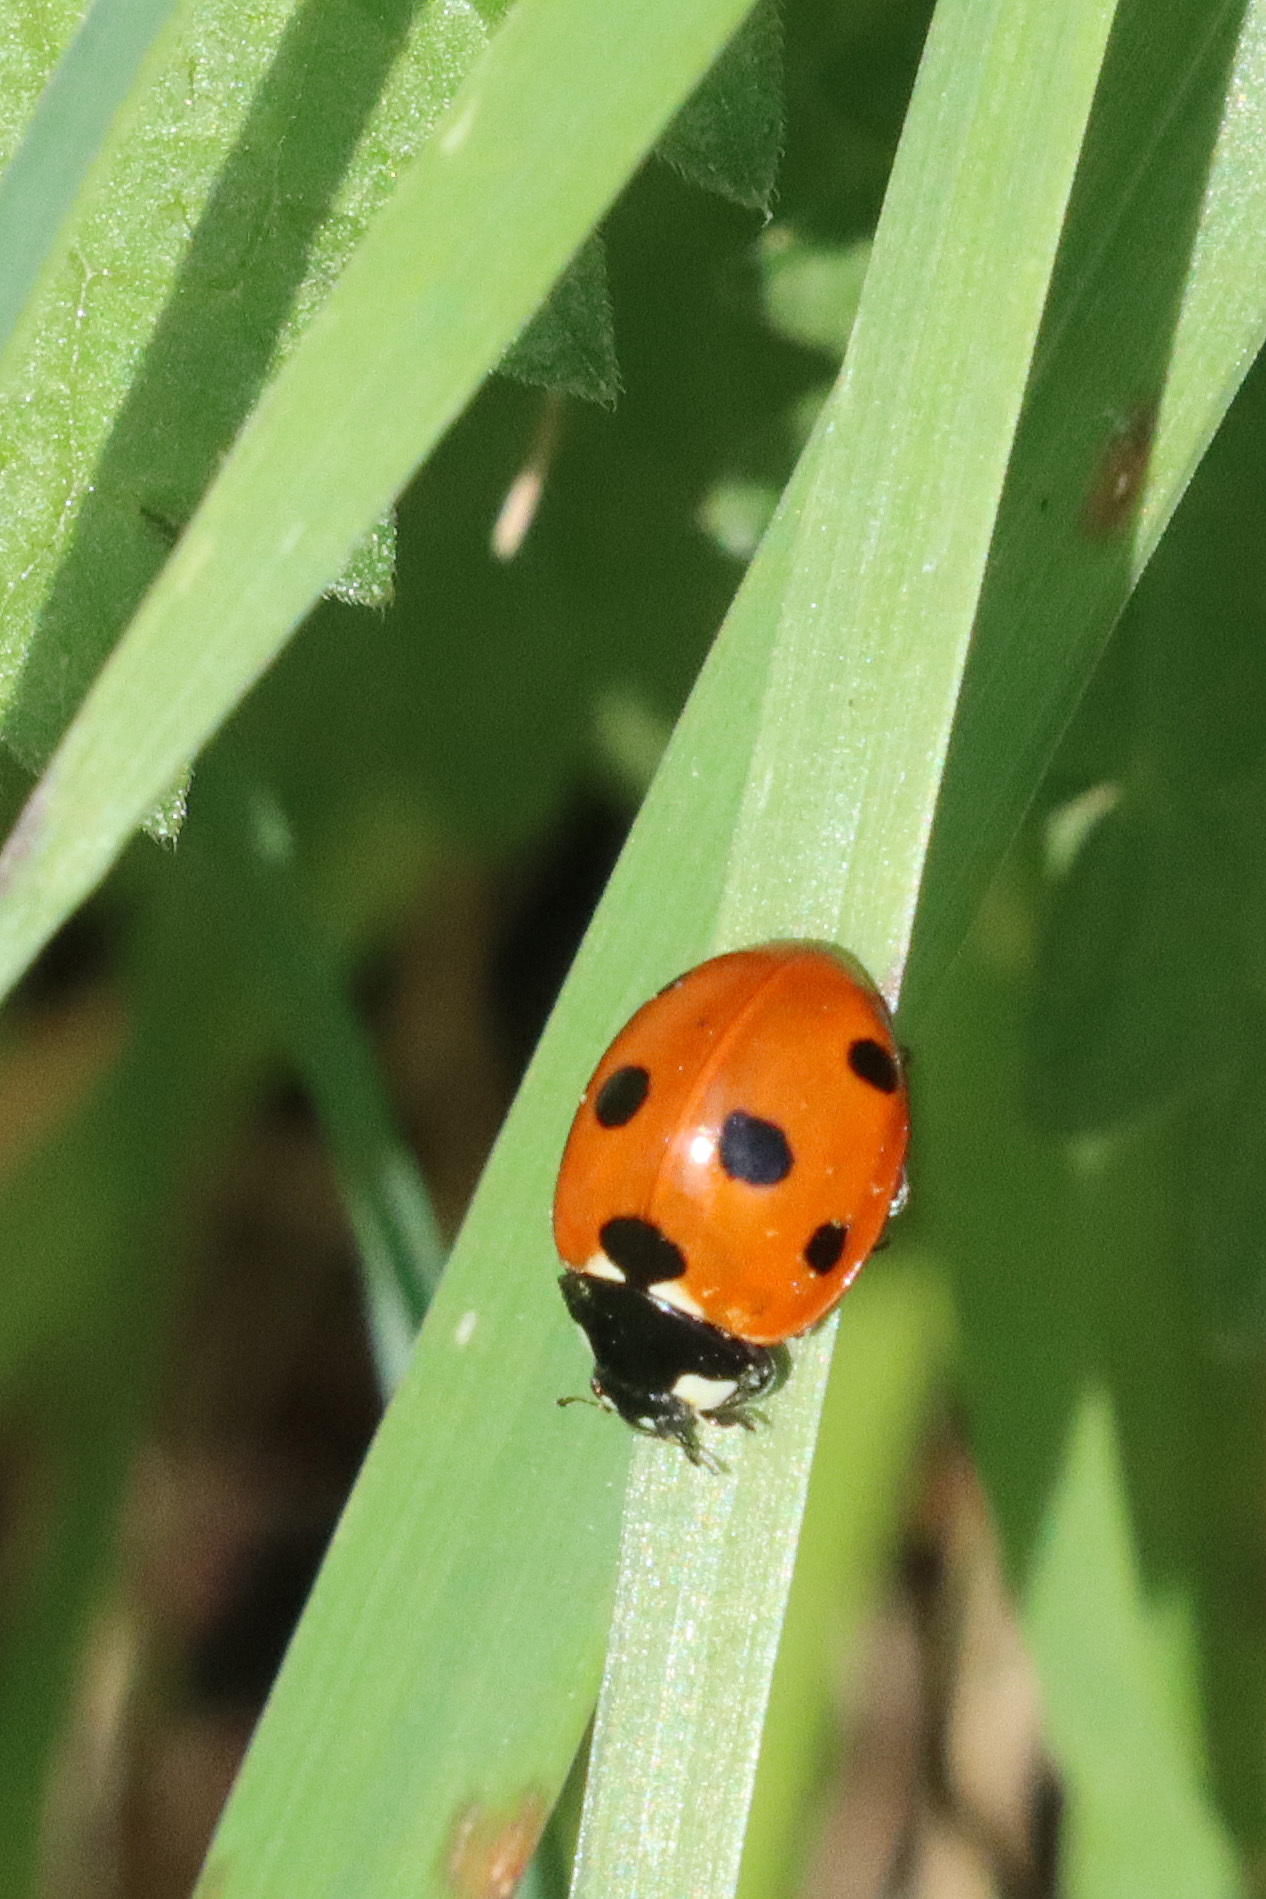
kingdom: Animalia
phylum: Arthropoda
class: Insecta
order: Coleoptera
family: Coccinellidae
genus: Coccinella
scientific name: Coccinella septempunctata
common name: Sevenspotted lady beetle
